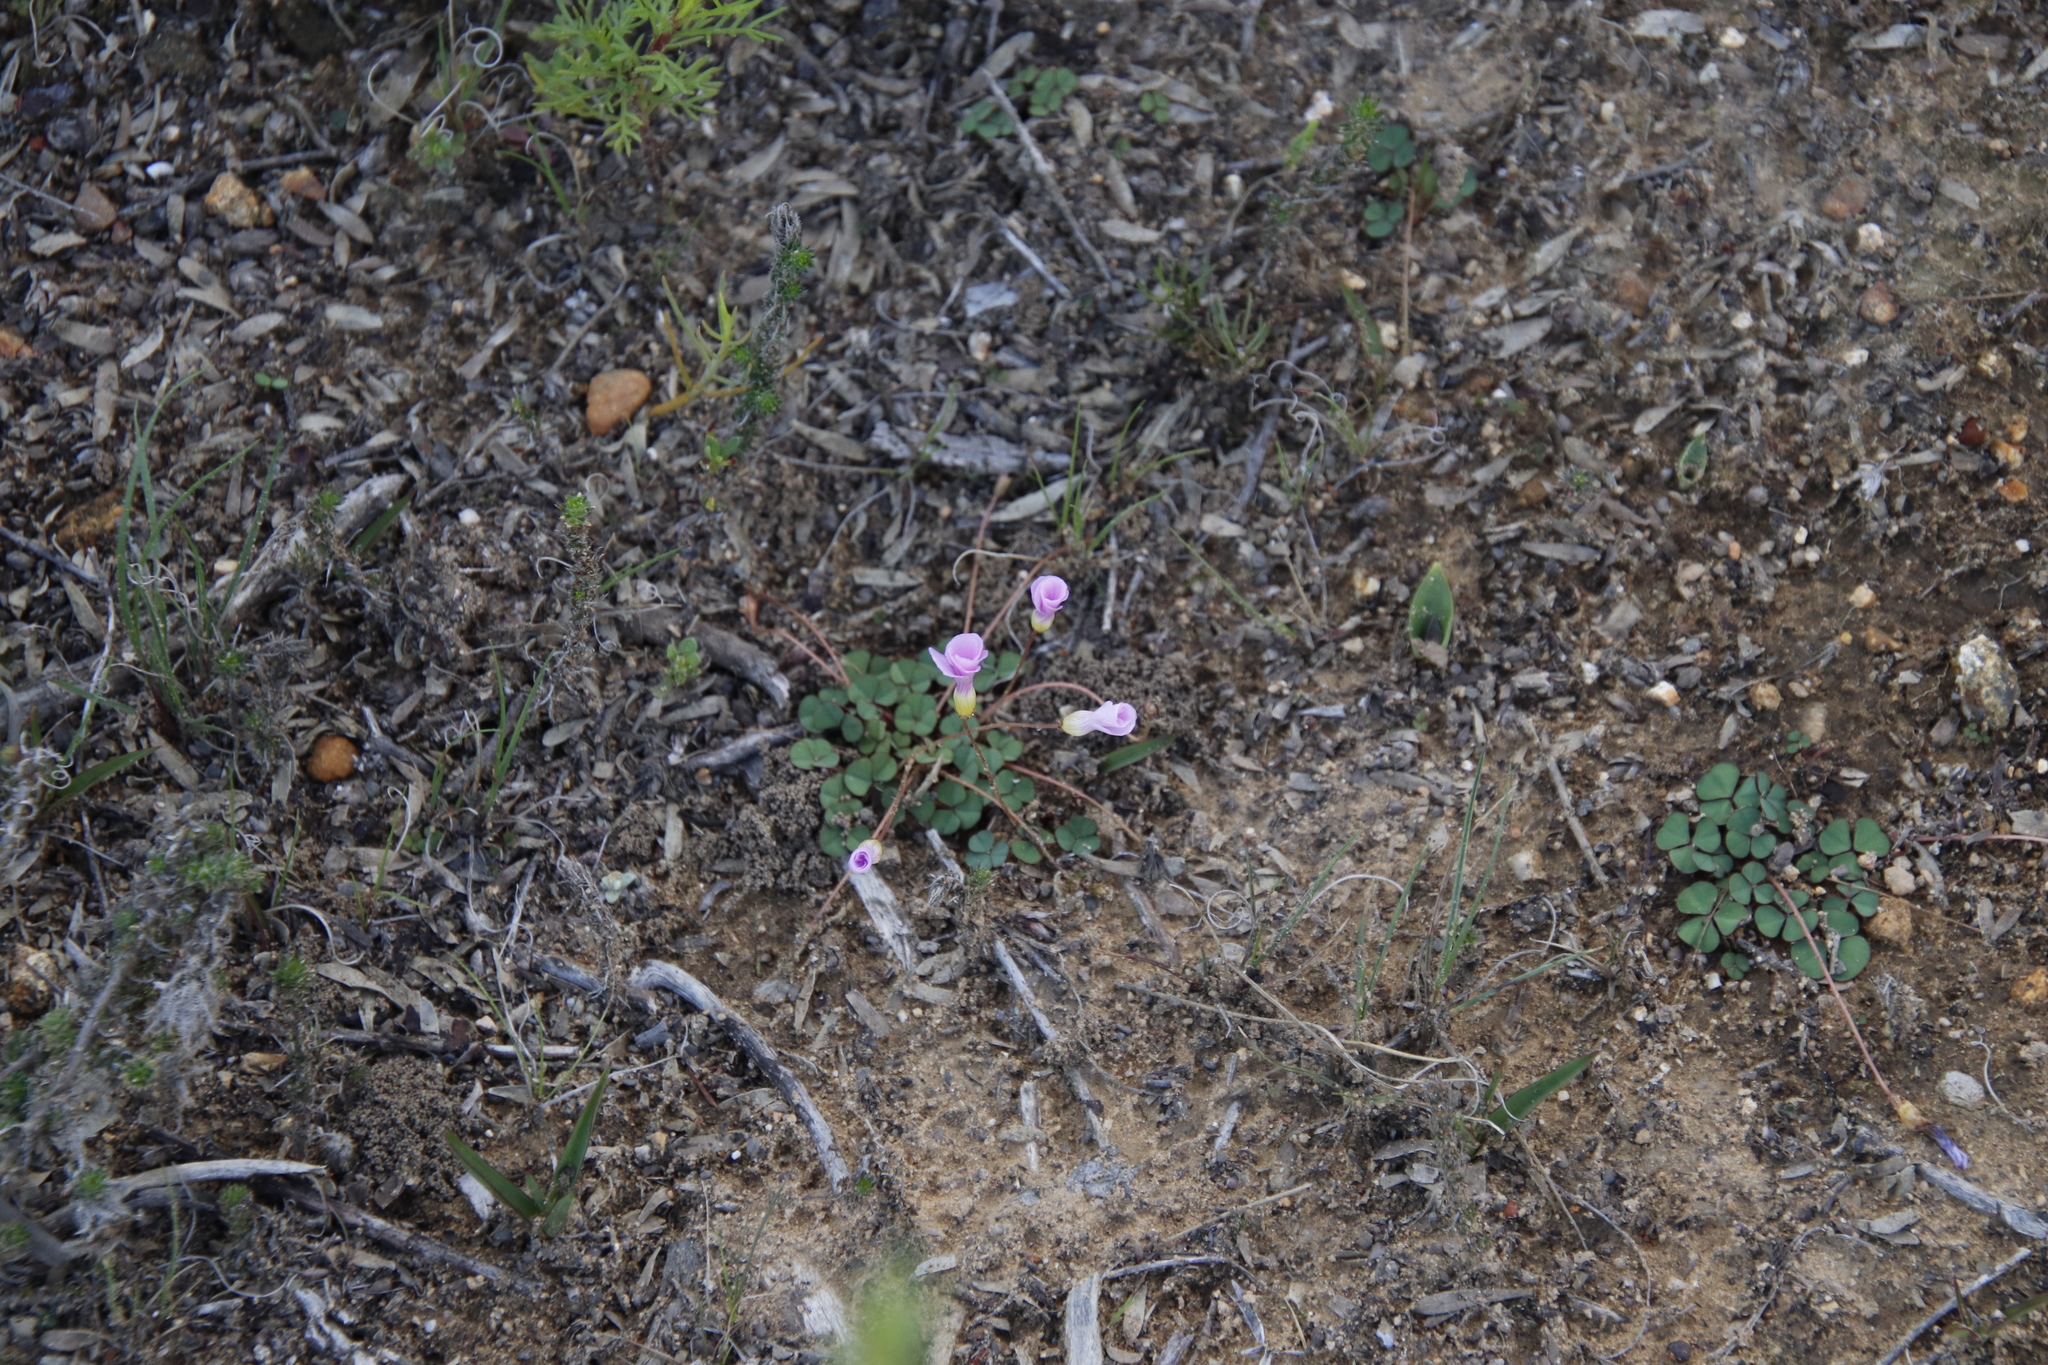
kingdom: Plantae
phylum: Tracheophyta
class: Magnoliopsida
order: Oxalidales
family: Oxalidaceae
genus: Oxalis
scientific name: Oxalis purpurea
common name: Purple woodsorrel
